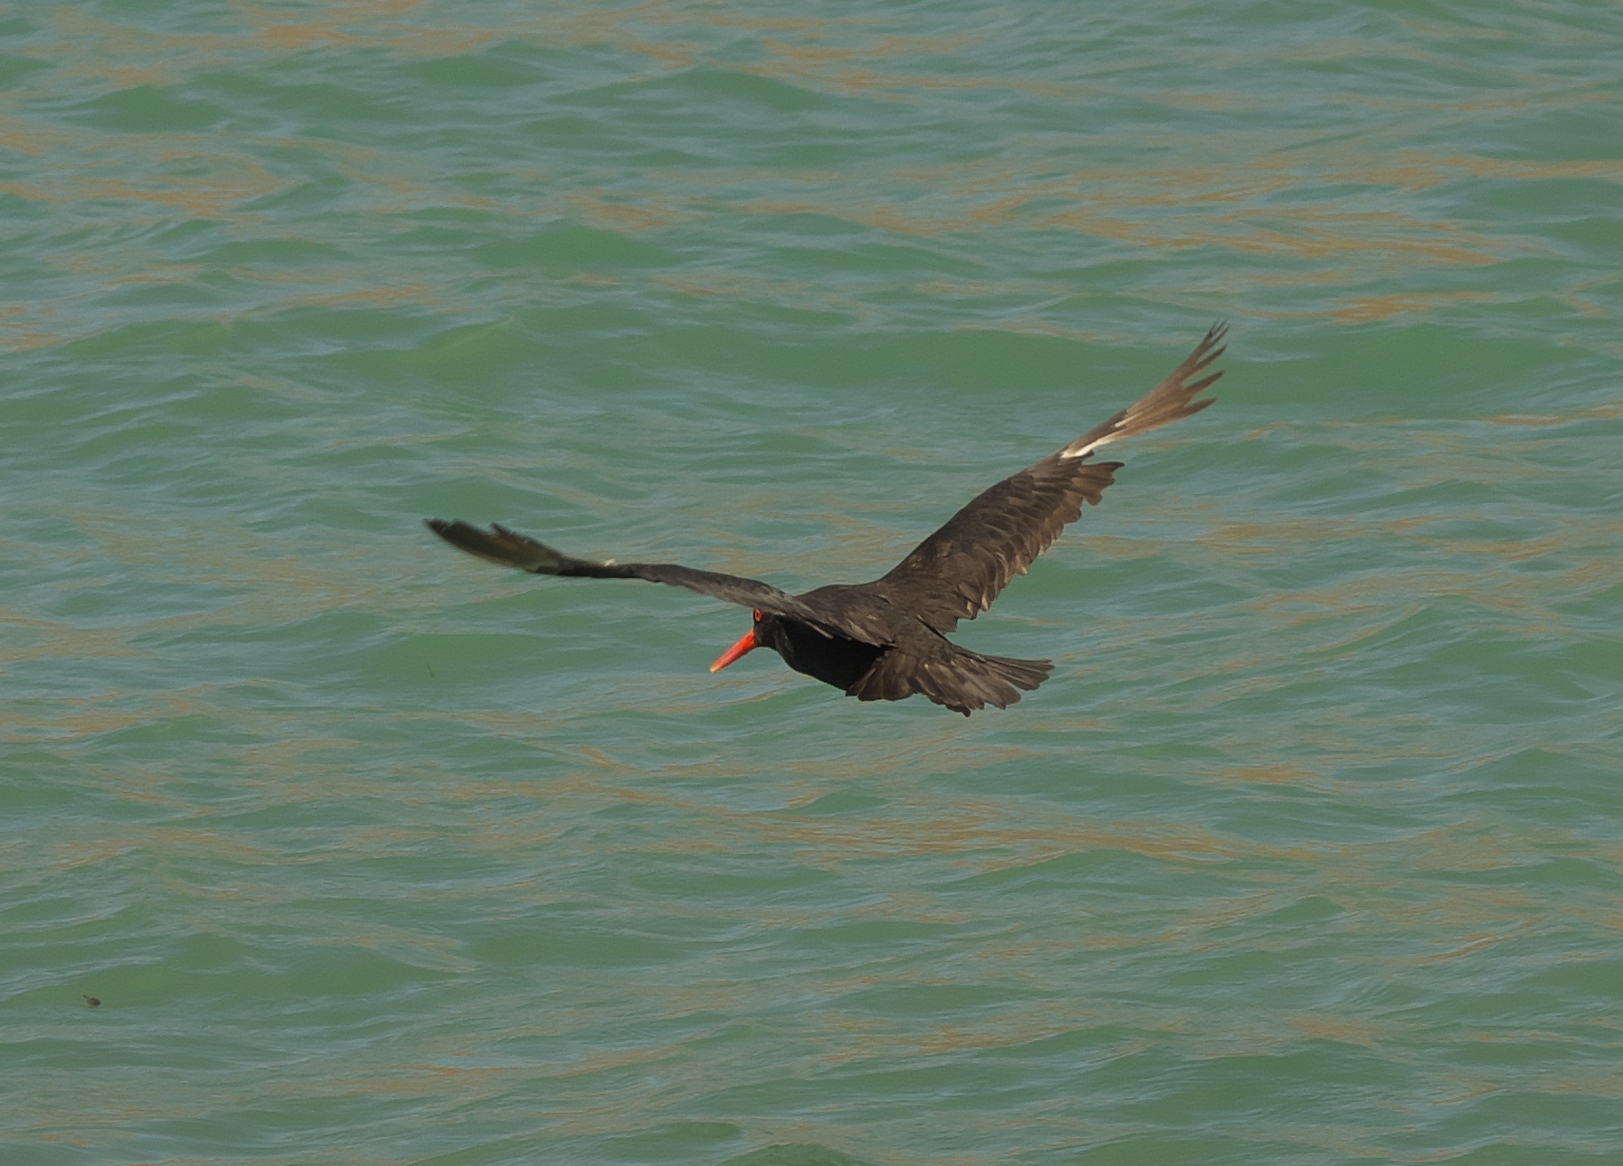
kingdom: Animalia
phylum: Chordata
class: Aves
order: Charadriiformes
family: Haematopodidae
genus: Haematopus
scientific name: Haematopus unicolor
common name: Variable oystercatcher
